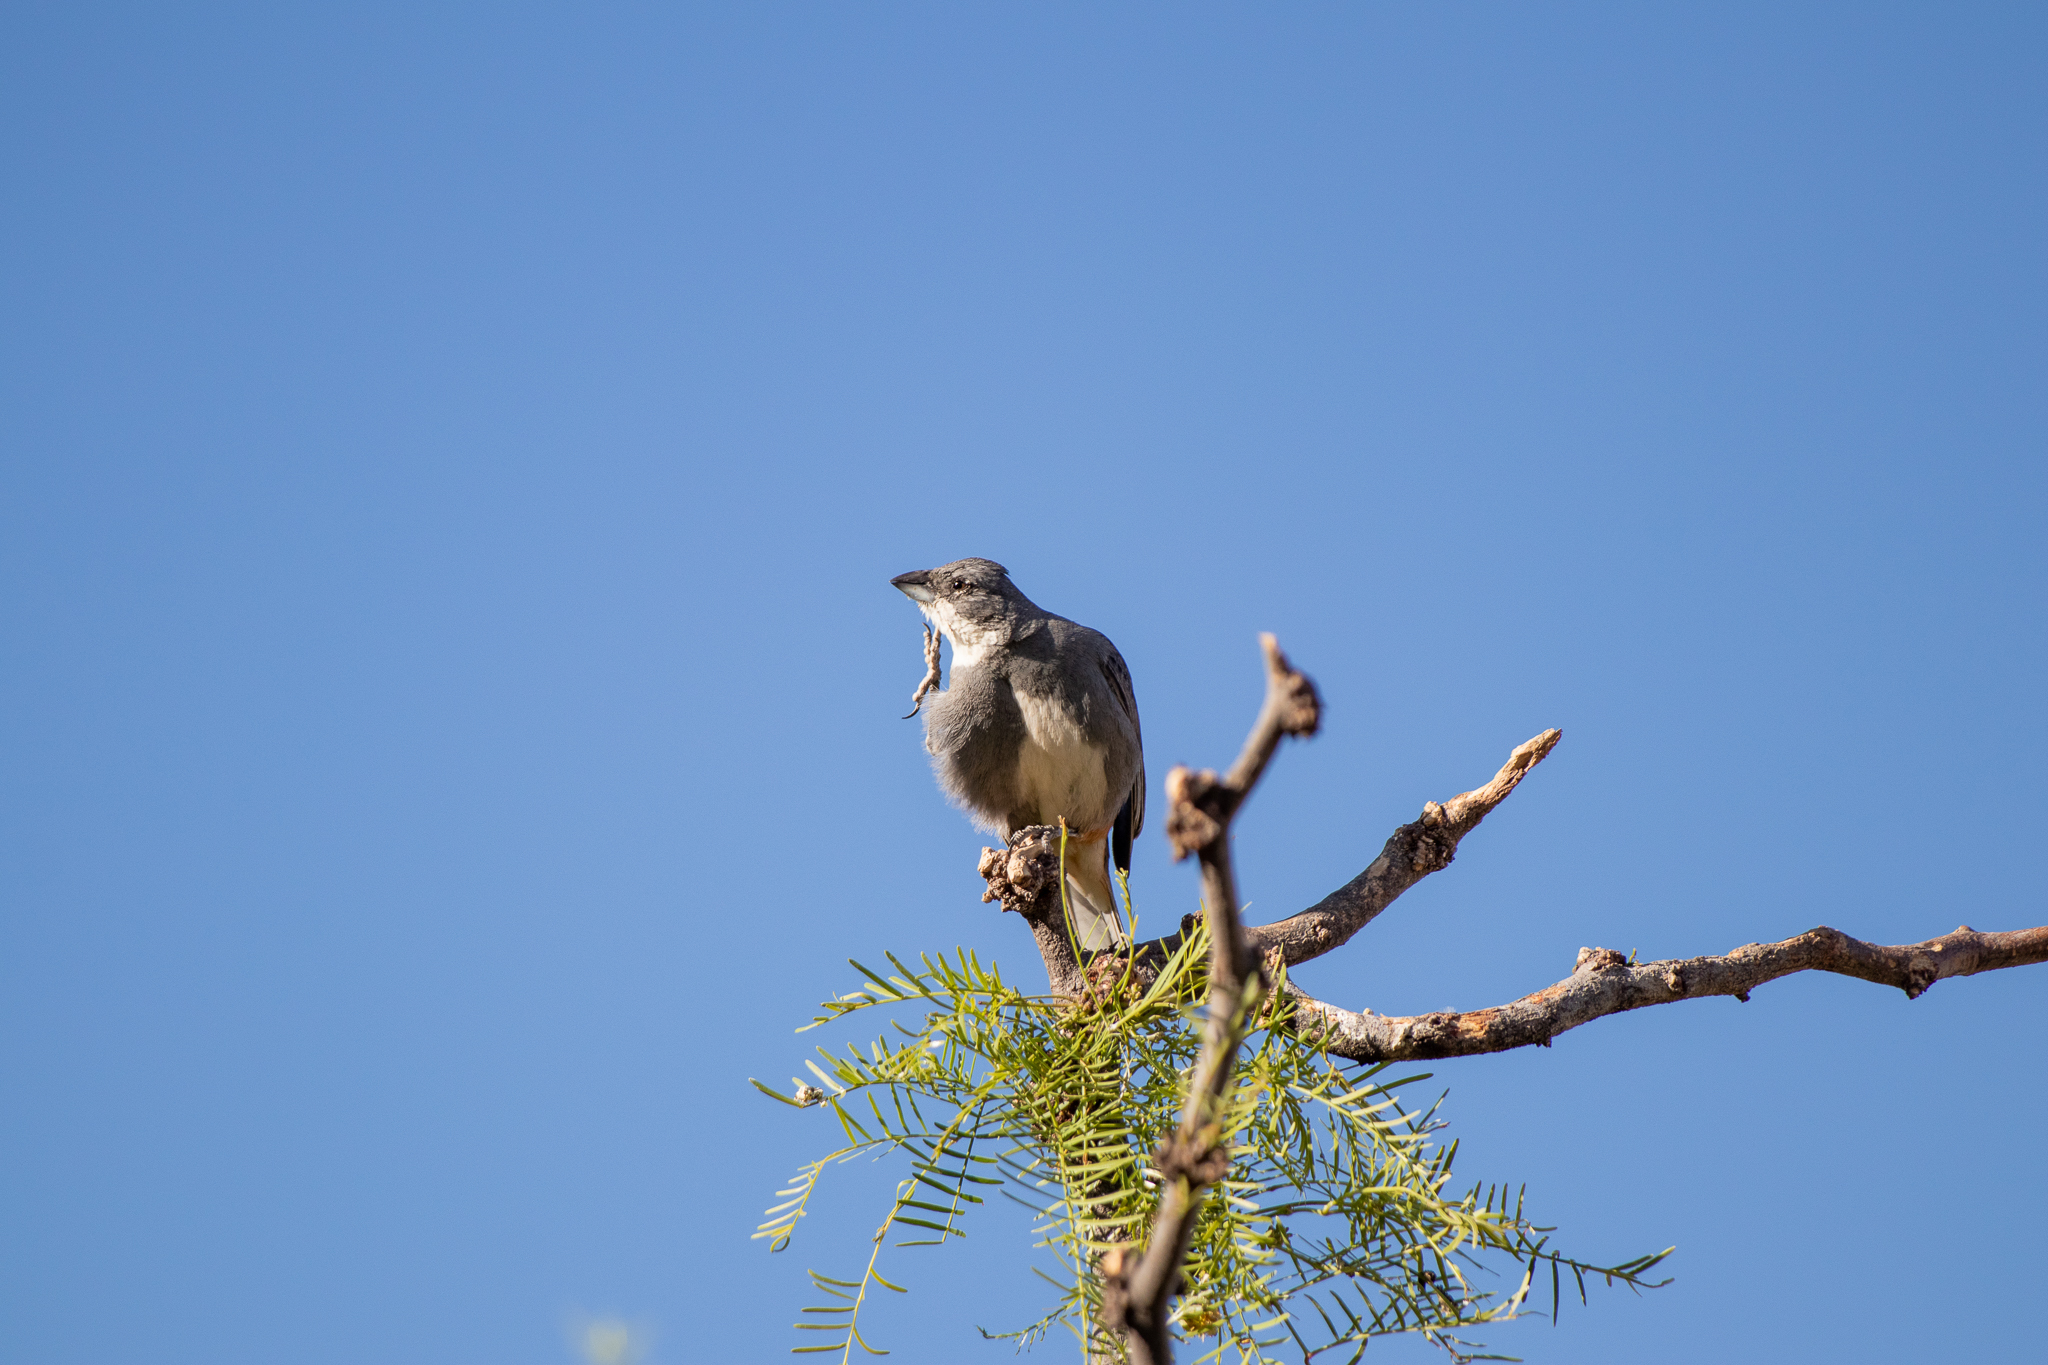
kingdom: Animalia
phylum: Chordata
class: Aves
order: Passeriformes
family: Thraupidae
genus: Diuca
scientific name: Diuca diuca
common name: Common diuca finch
